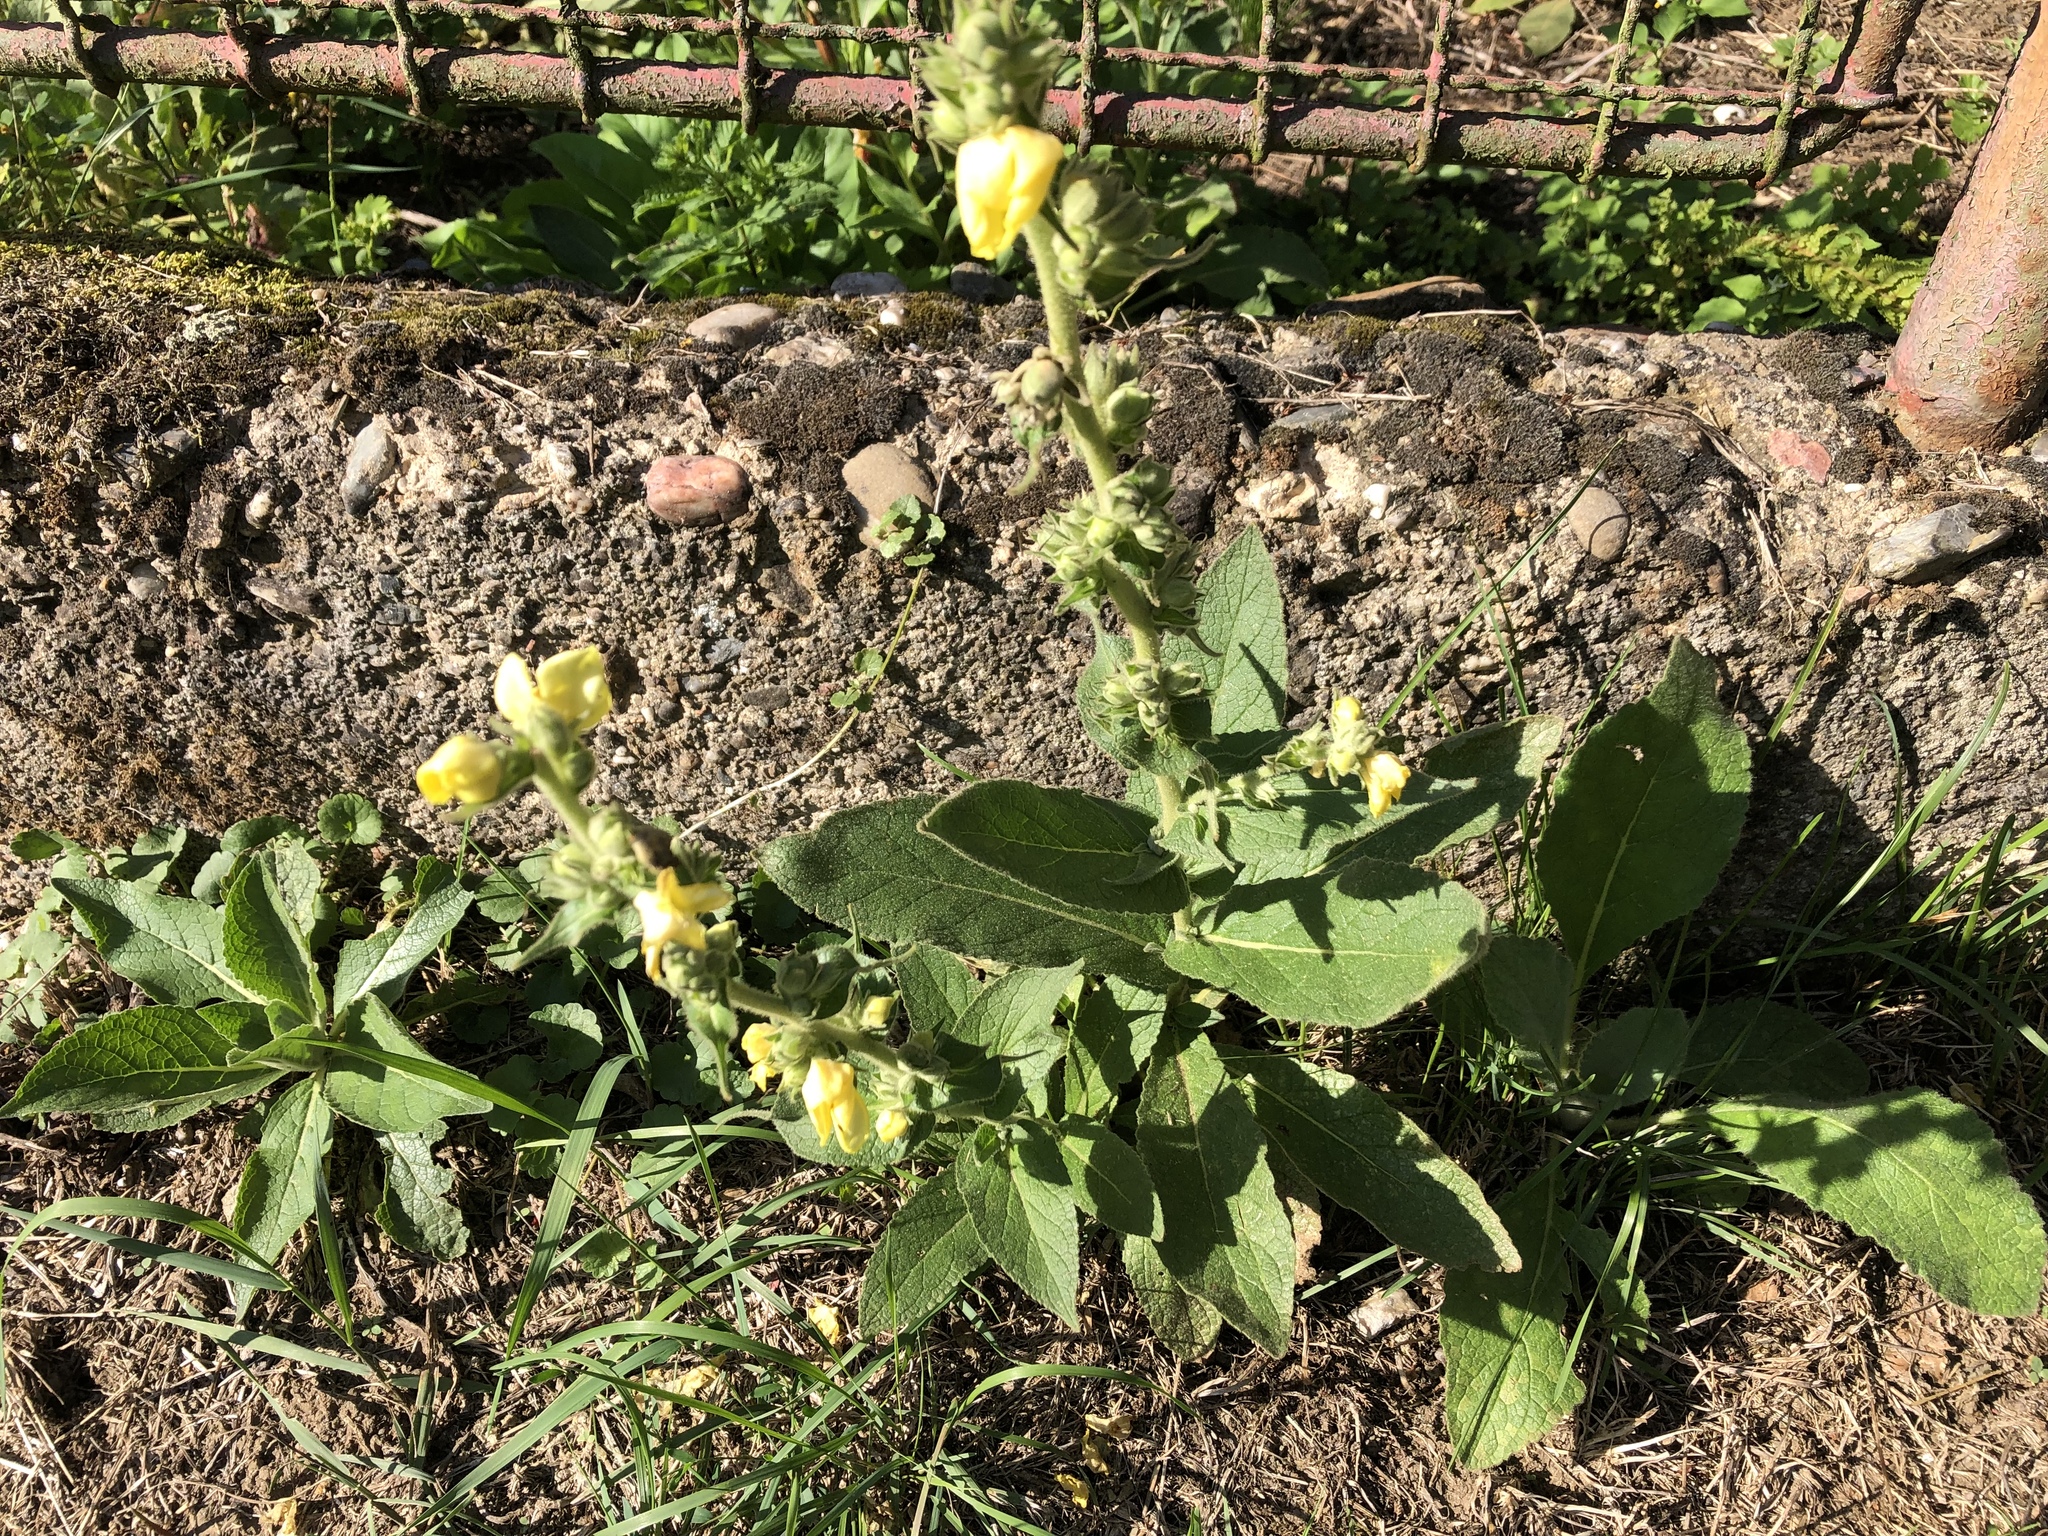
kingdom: Plantae
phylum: Tracheophyta
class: Magnoliopsida
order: Lamiales
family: Scrophulariaceae
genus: Verbascum
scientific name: Verbascum phlomoides
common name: Orange mullein
